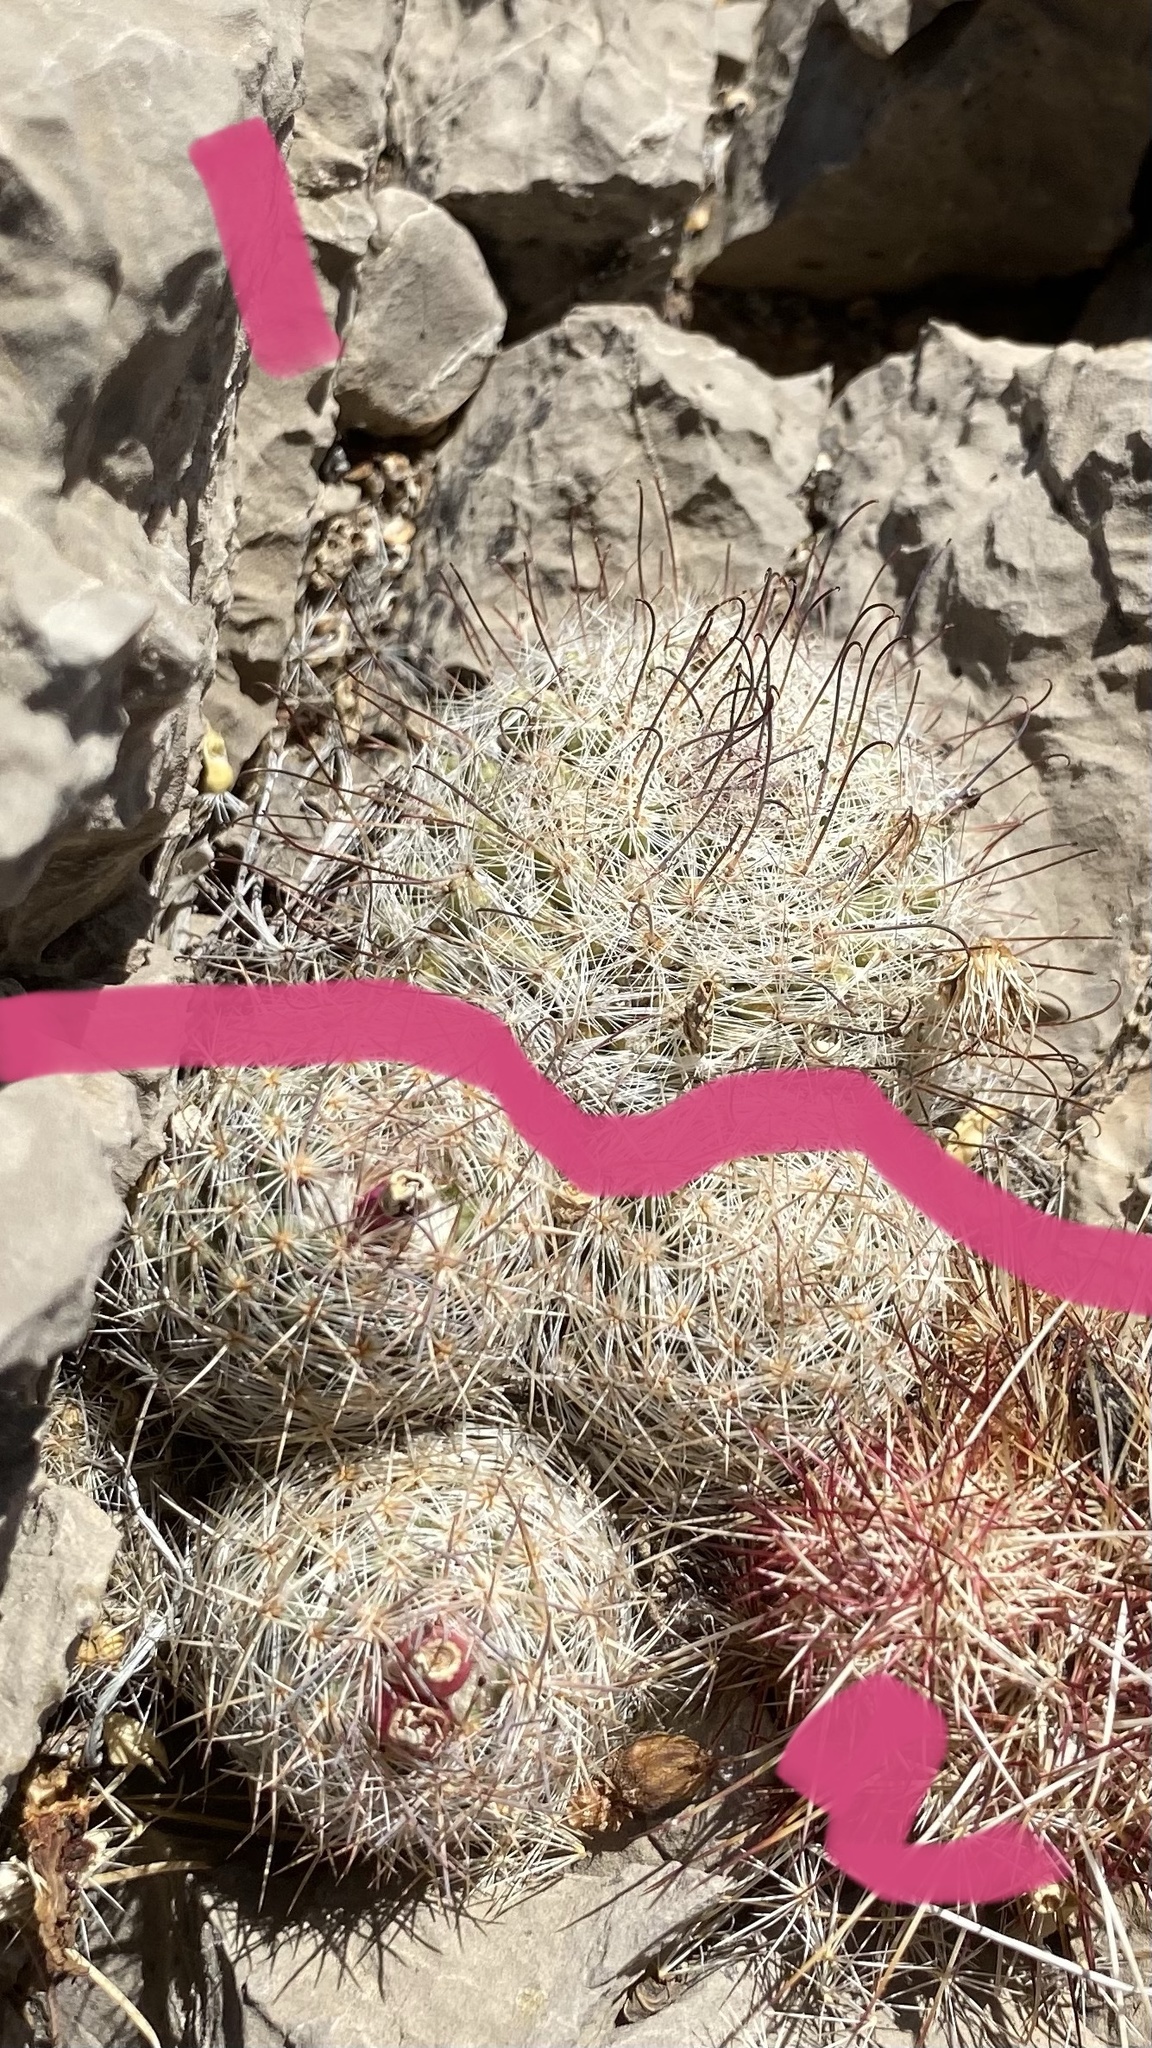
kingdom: Plantae
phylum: Tracheophyta
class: Magnoliopsida
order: Caryophyllales
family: Cactaceae
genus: Pelecyphora
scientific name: Pelecyphora tuberculosa
